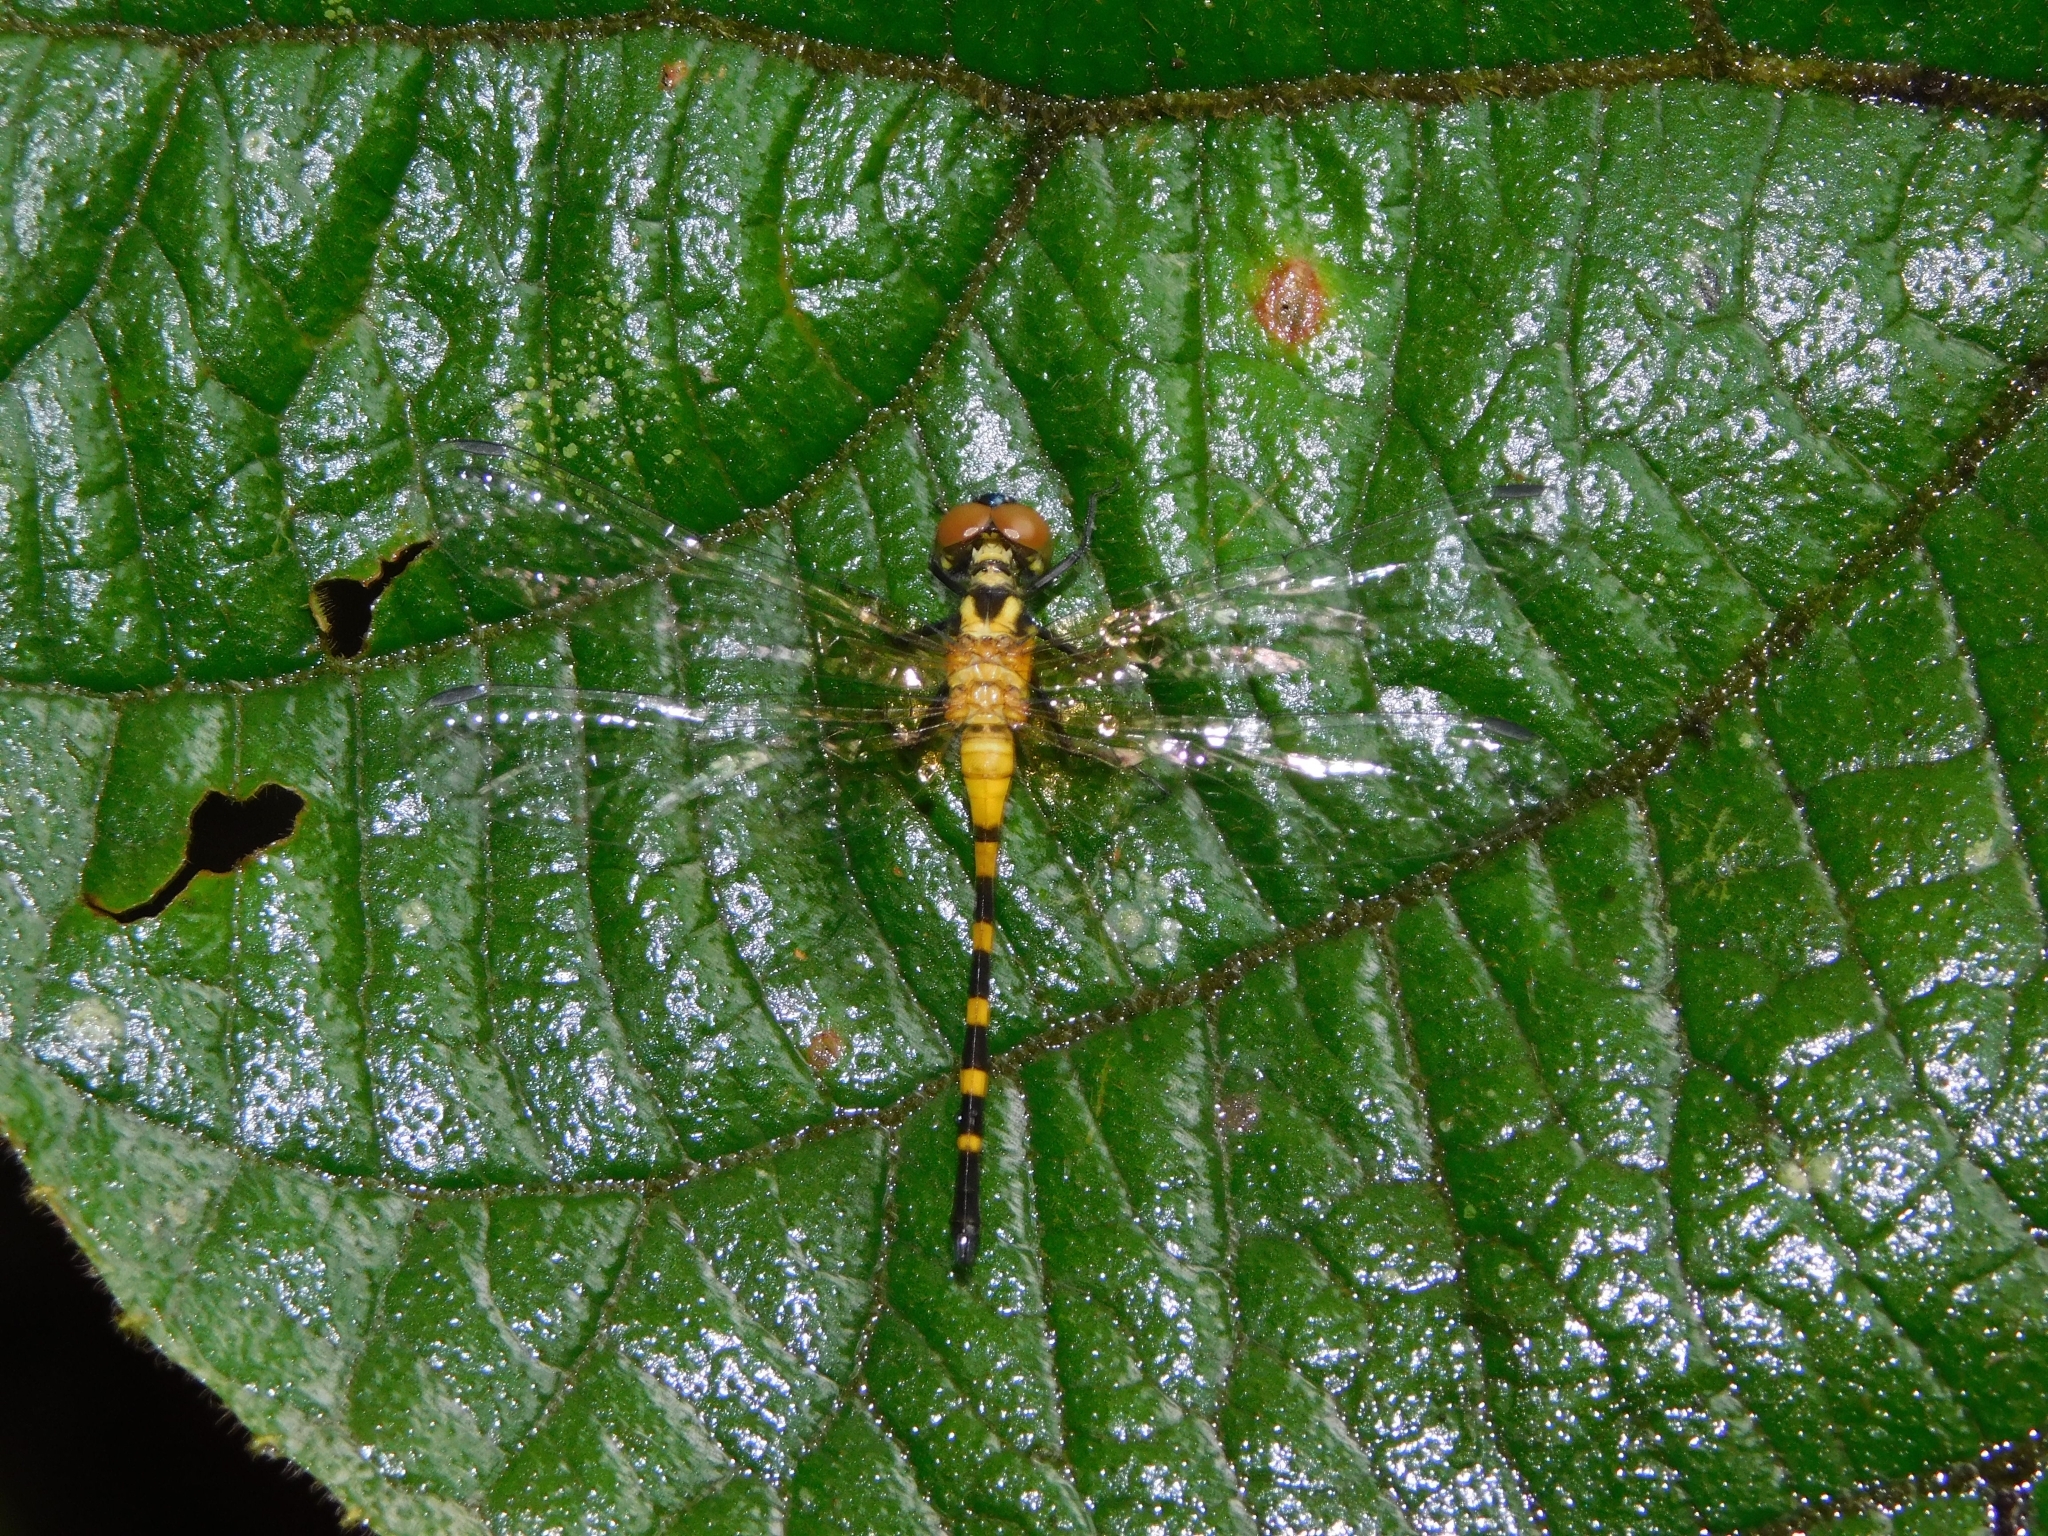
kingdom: Animalia
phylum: Arthropoda
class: Insecta
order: Odonata
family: Libellulidae
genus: Epithemis
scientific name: Epithemis mariae
